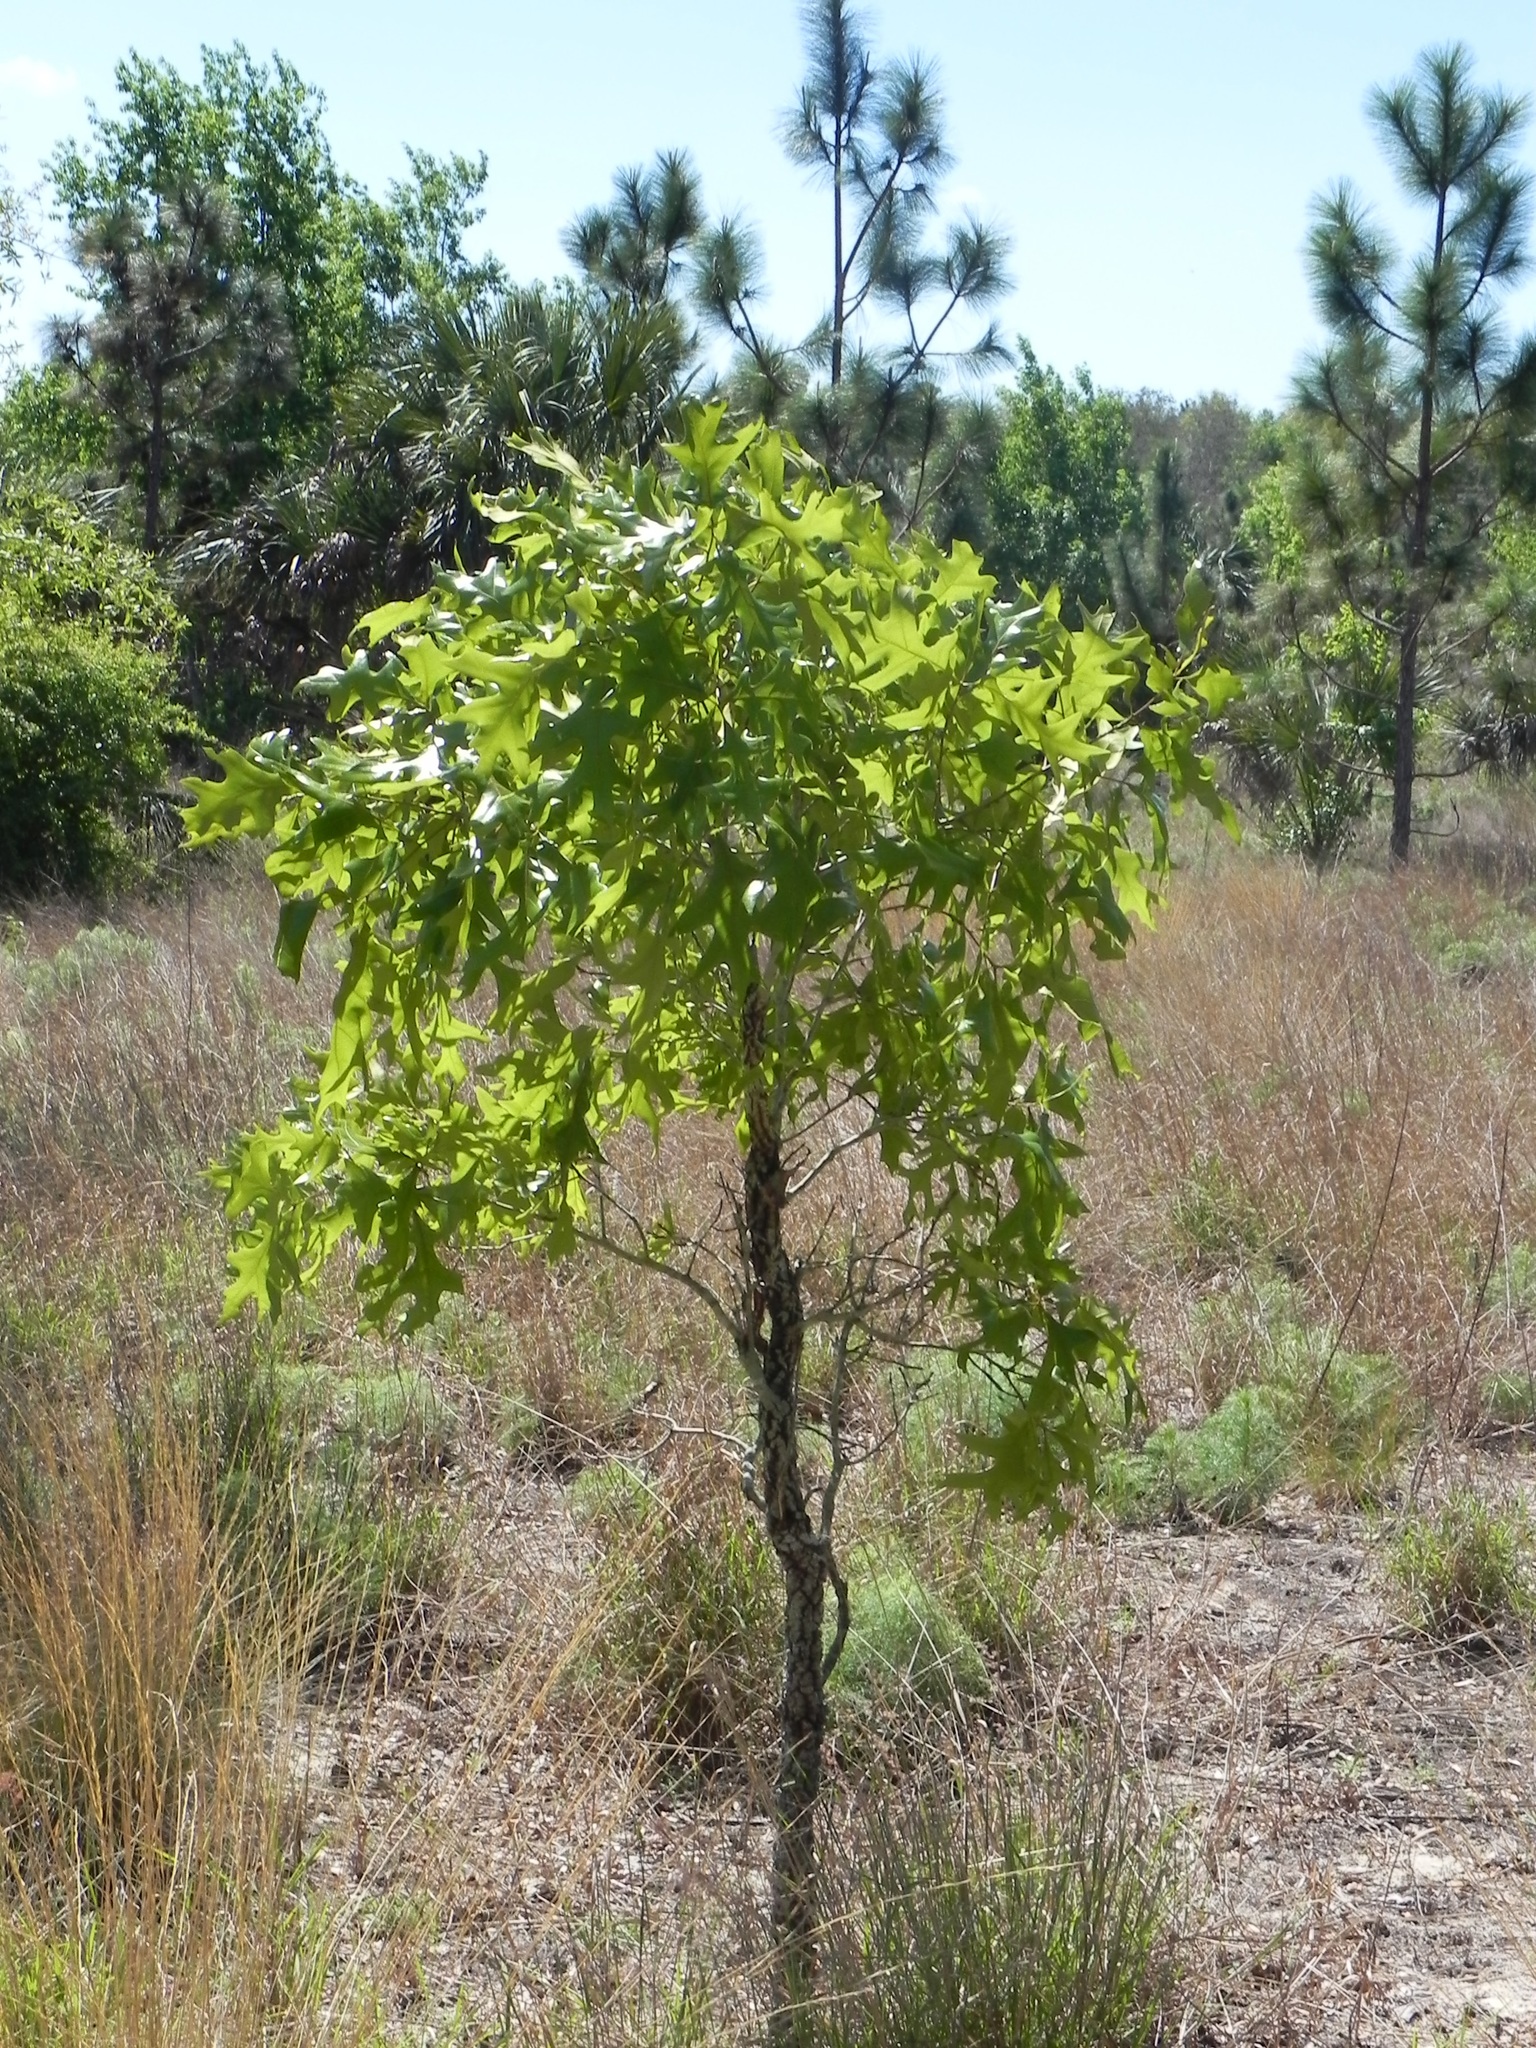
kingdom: Plantae
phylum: Tracheophyta
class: Magnoliopsida
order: Fagales
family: Fagaceae
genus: Quercus
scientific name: Quercus laevis
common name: Turkey oak
